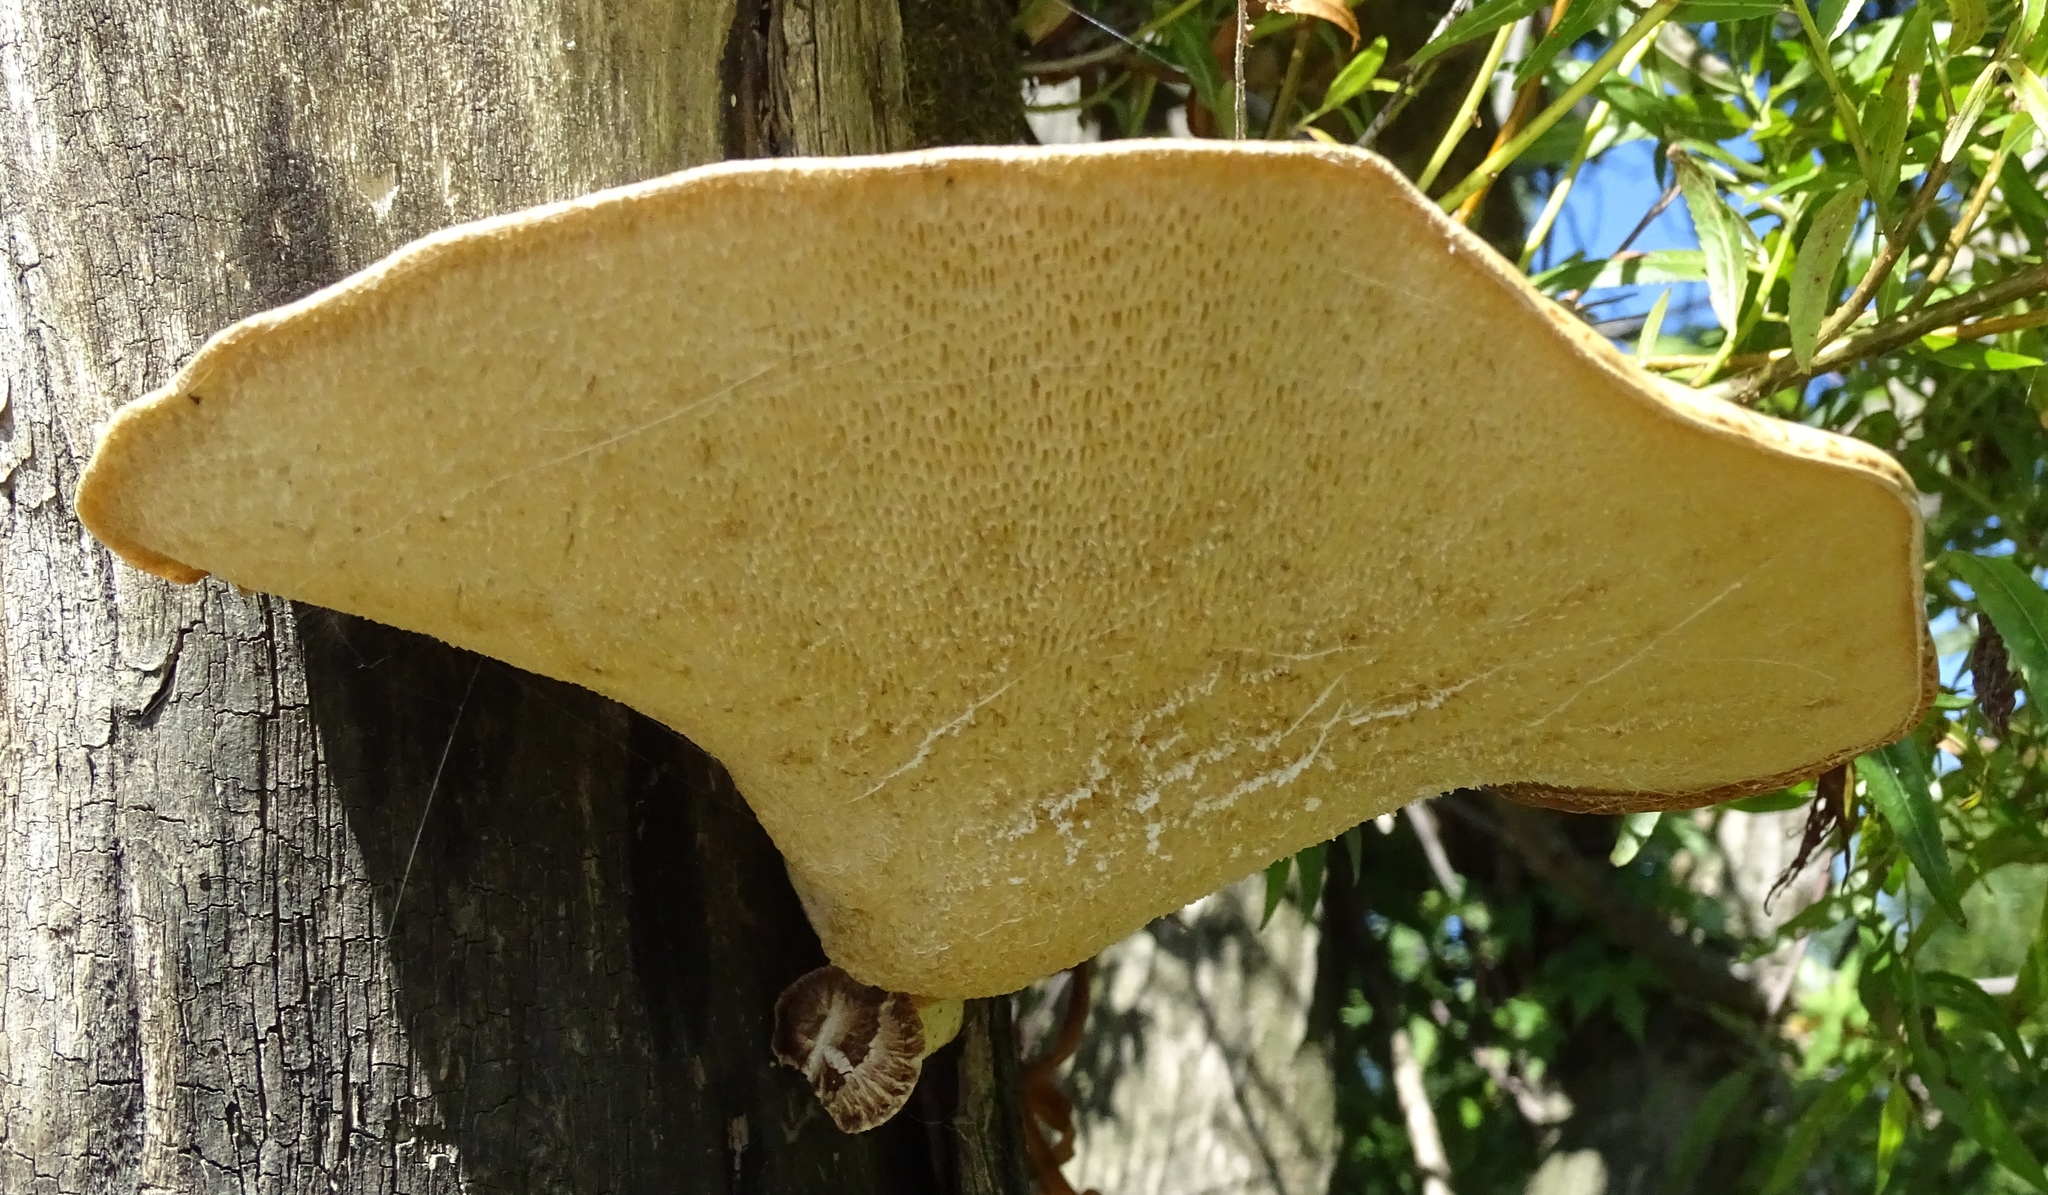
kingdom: Fungi
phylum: Basidiomycota
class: Agaricomycetes
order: Polyporales
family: Polyporaceae
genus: Cerioporus
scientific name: Cerioporus squamosus
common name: Dryad's saddle
